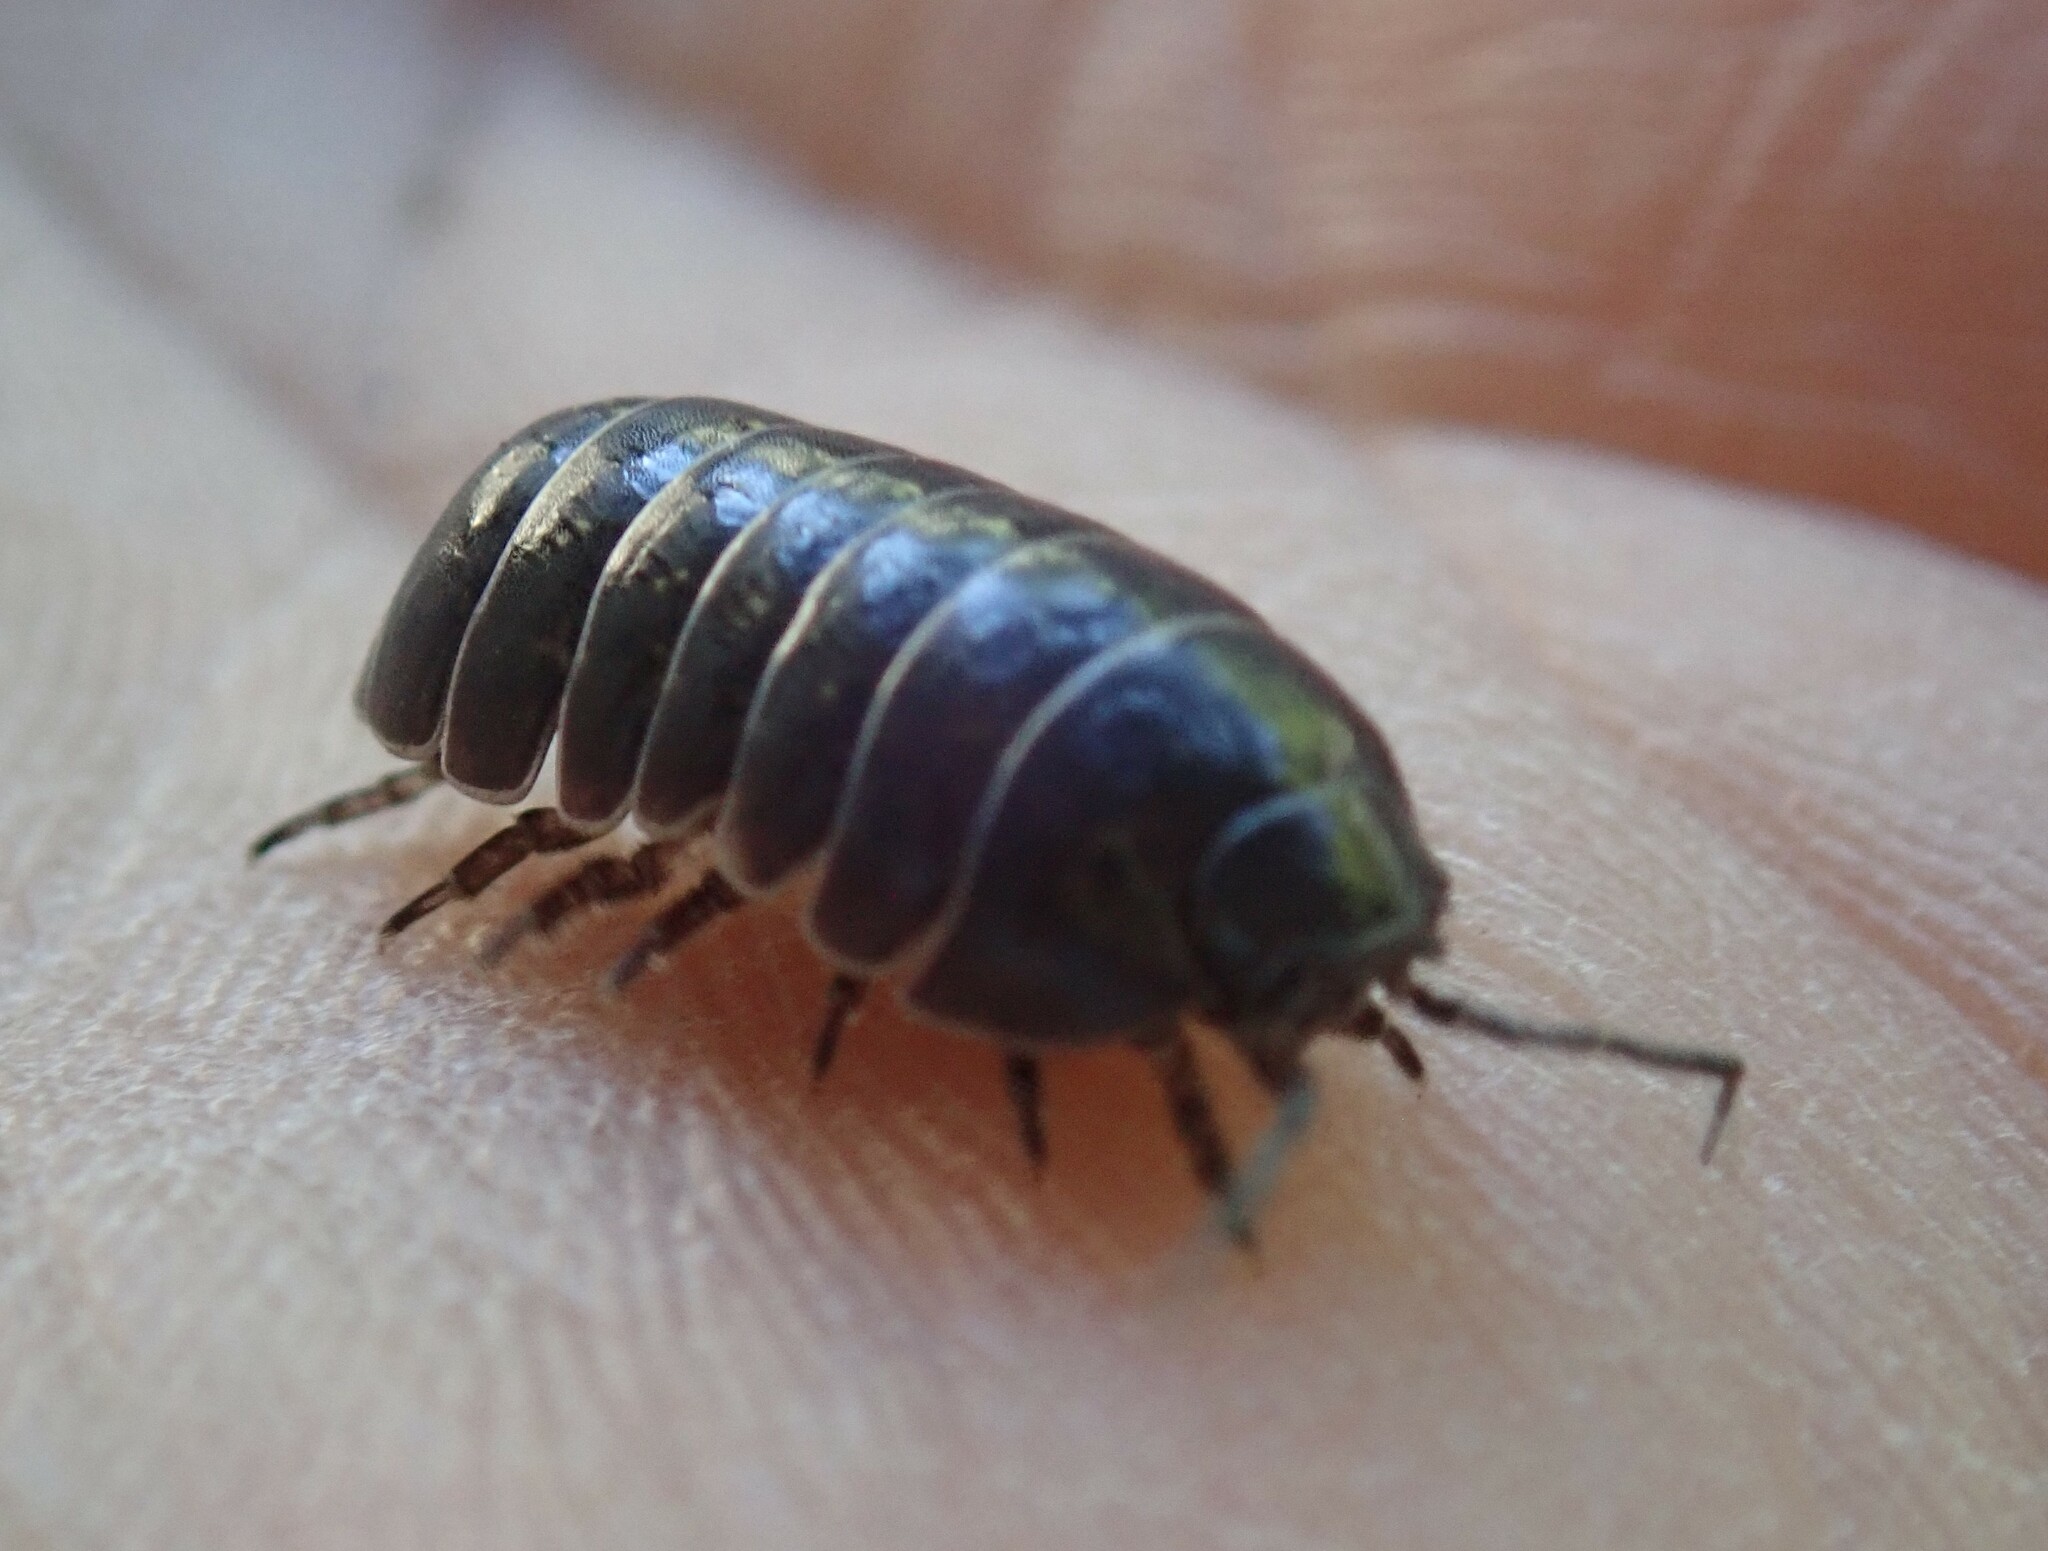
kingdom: Animalia
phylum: Arthropoda
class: Malacostraca
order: Isopoda
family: Armadillidiidae
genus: Armadillidium
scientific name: Armadillidium vulgare
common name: Common pill woodlouse
